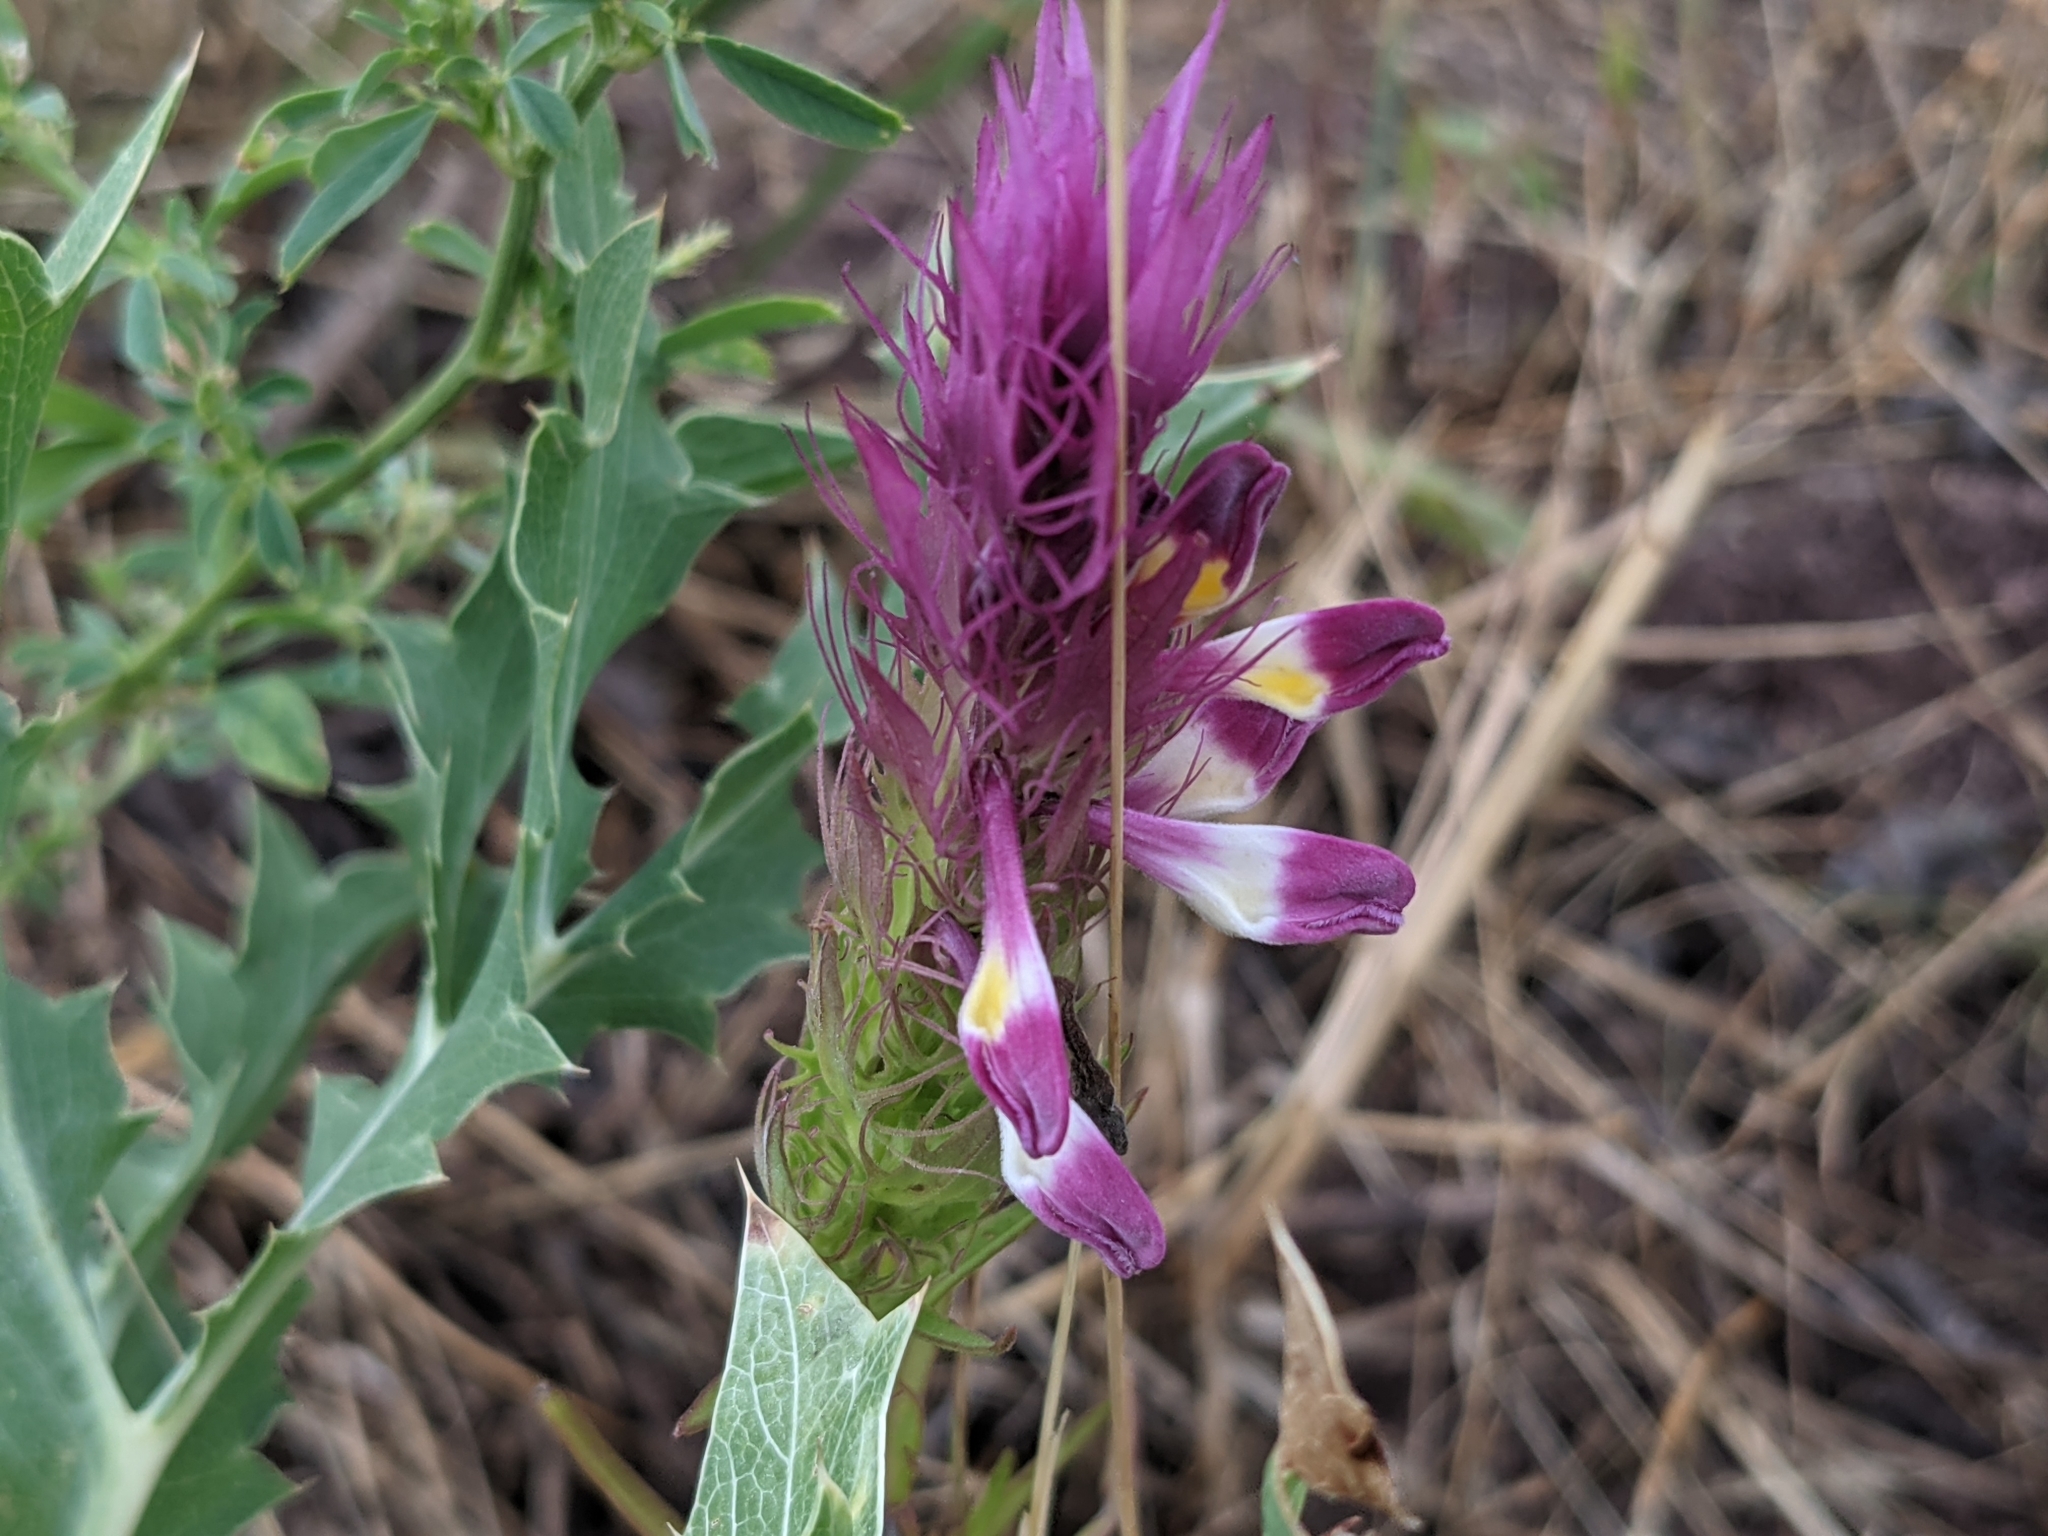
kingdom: Plantae
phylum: Tracheophyta
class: Magnoliopsida
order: Lamiales
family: Orobanchaceae
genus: Melampyrum
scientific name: Melampyrum arvense
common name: Field cow-wheat
